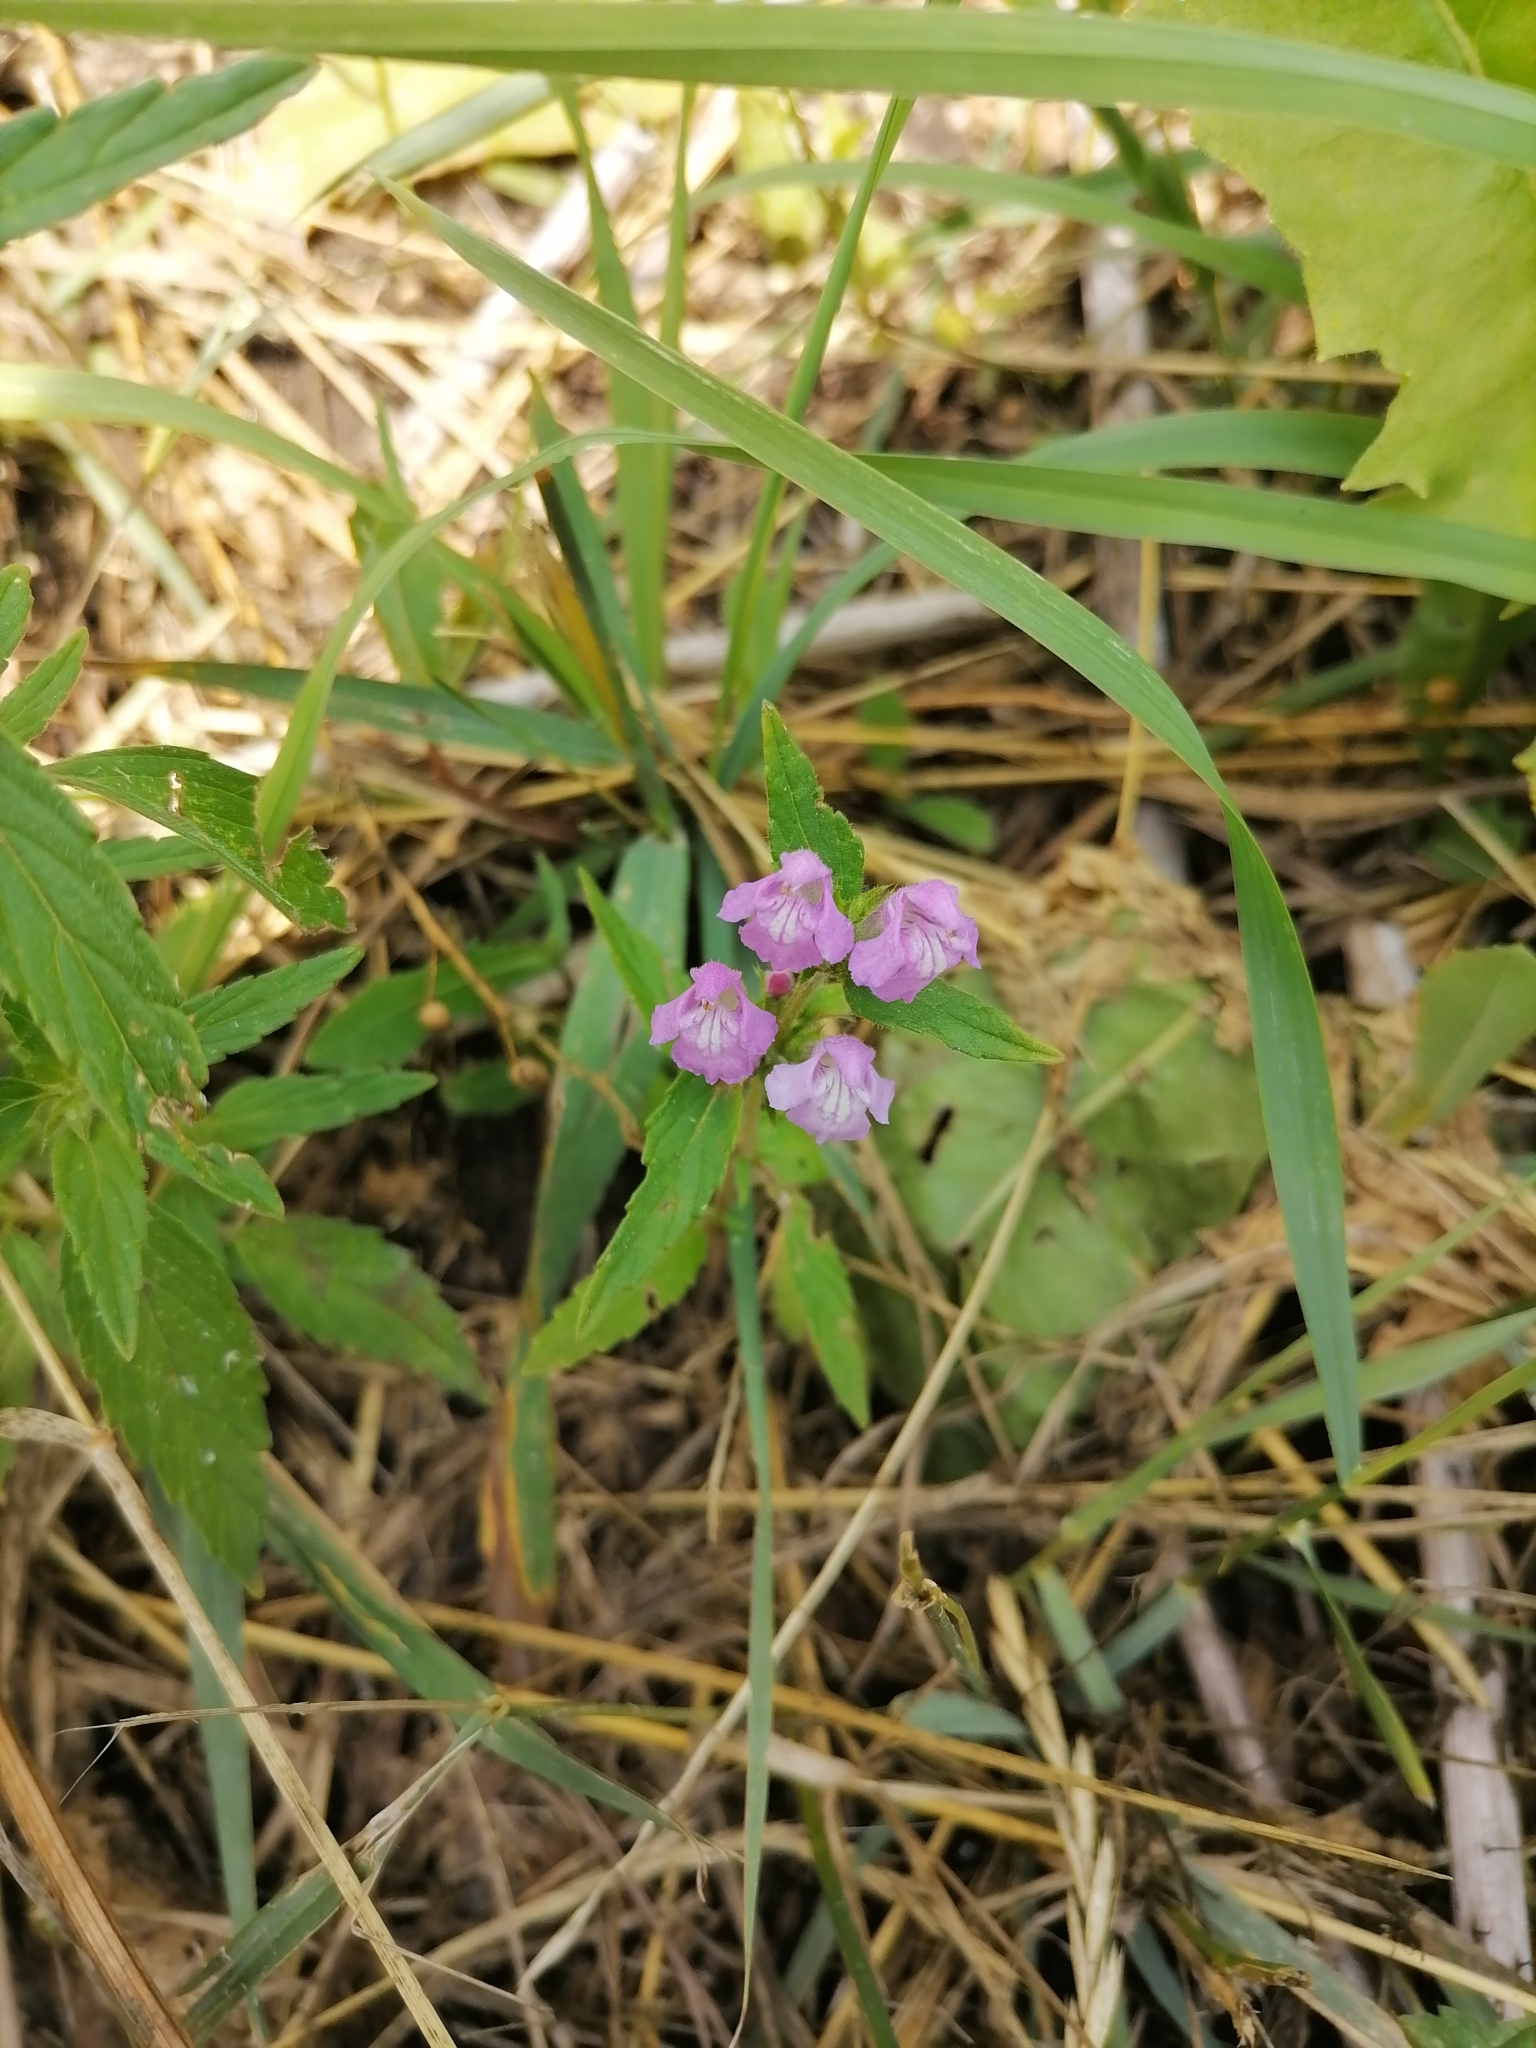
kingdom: Plantae
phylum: Tracheophyta
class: Magnoliopsida
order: Lamiales
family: Lamiaceae
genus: Galeopsis
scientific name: Galeopsis ladanum
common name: Broad-leaved hemp-nettle
